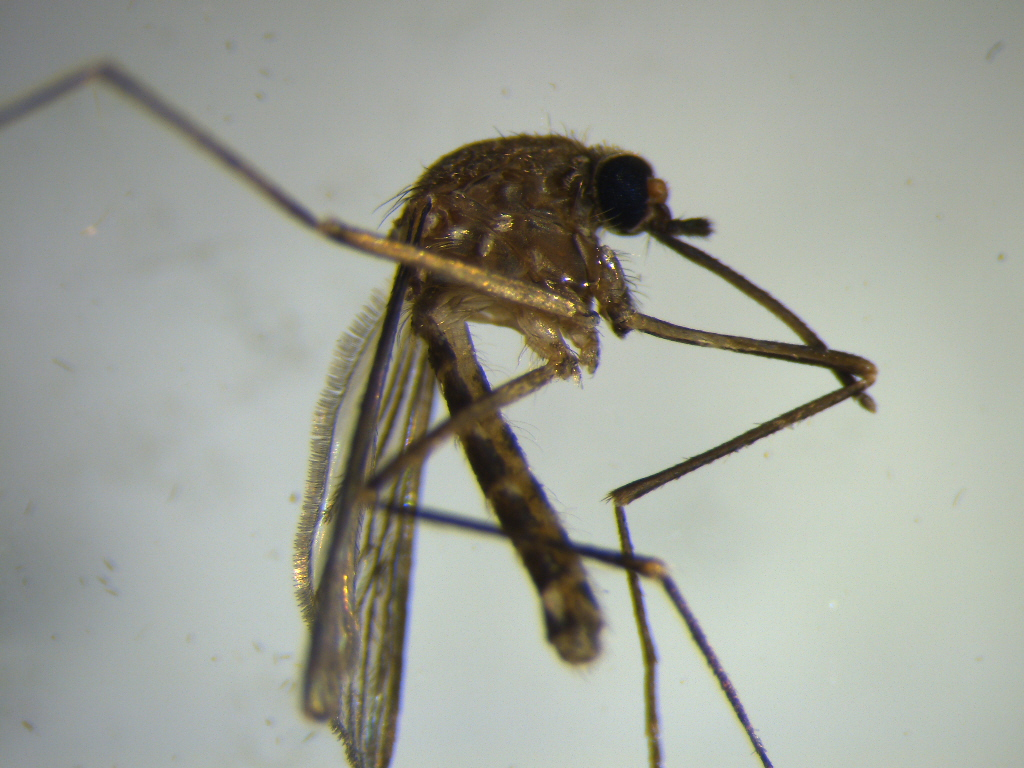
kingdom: Animalia
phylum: Arthropoda
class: Insecta
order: Diptera
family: Culicidae
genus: Culex
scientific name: Culex pervigilans
